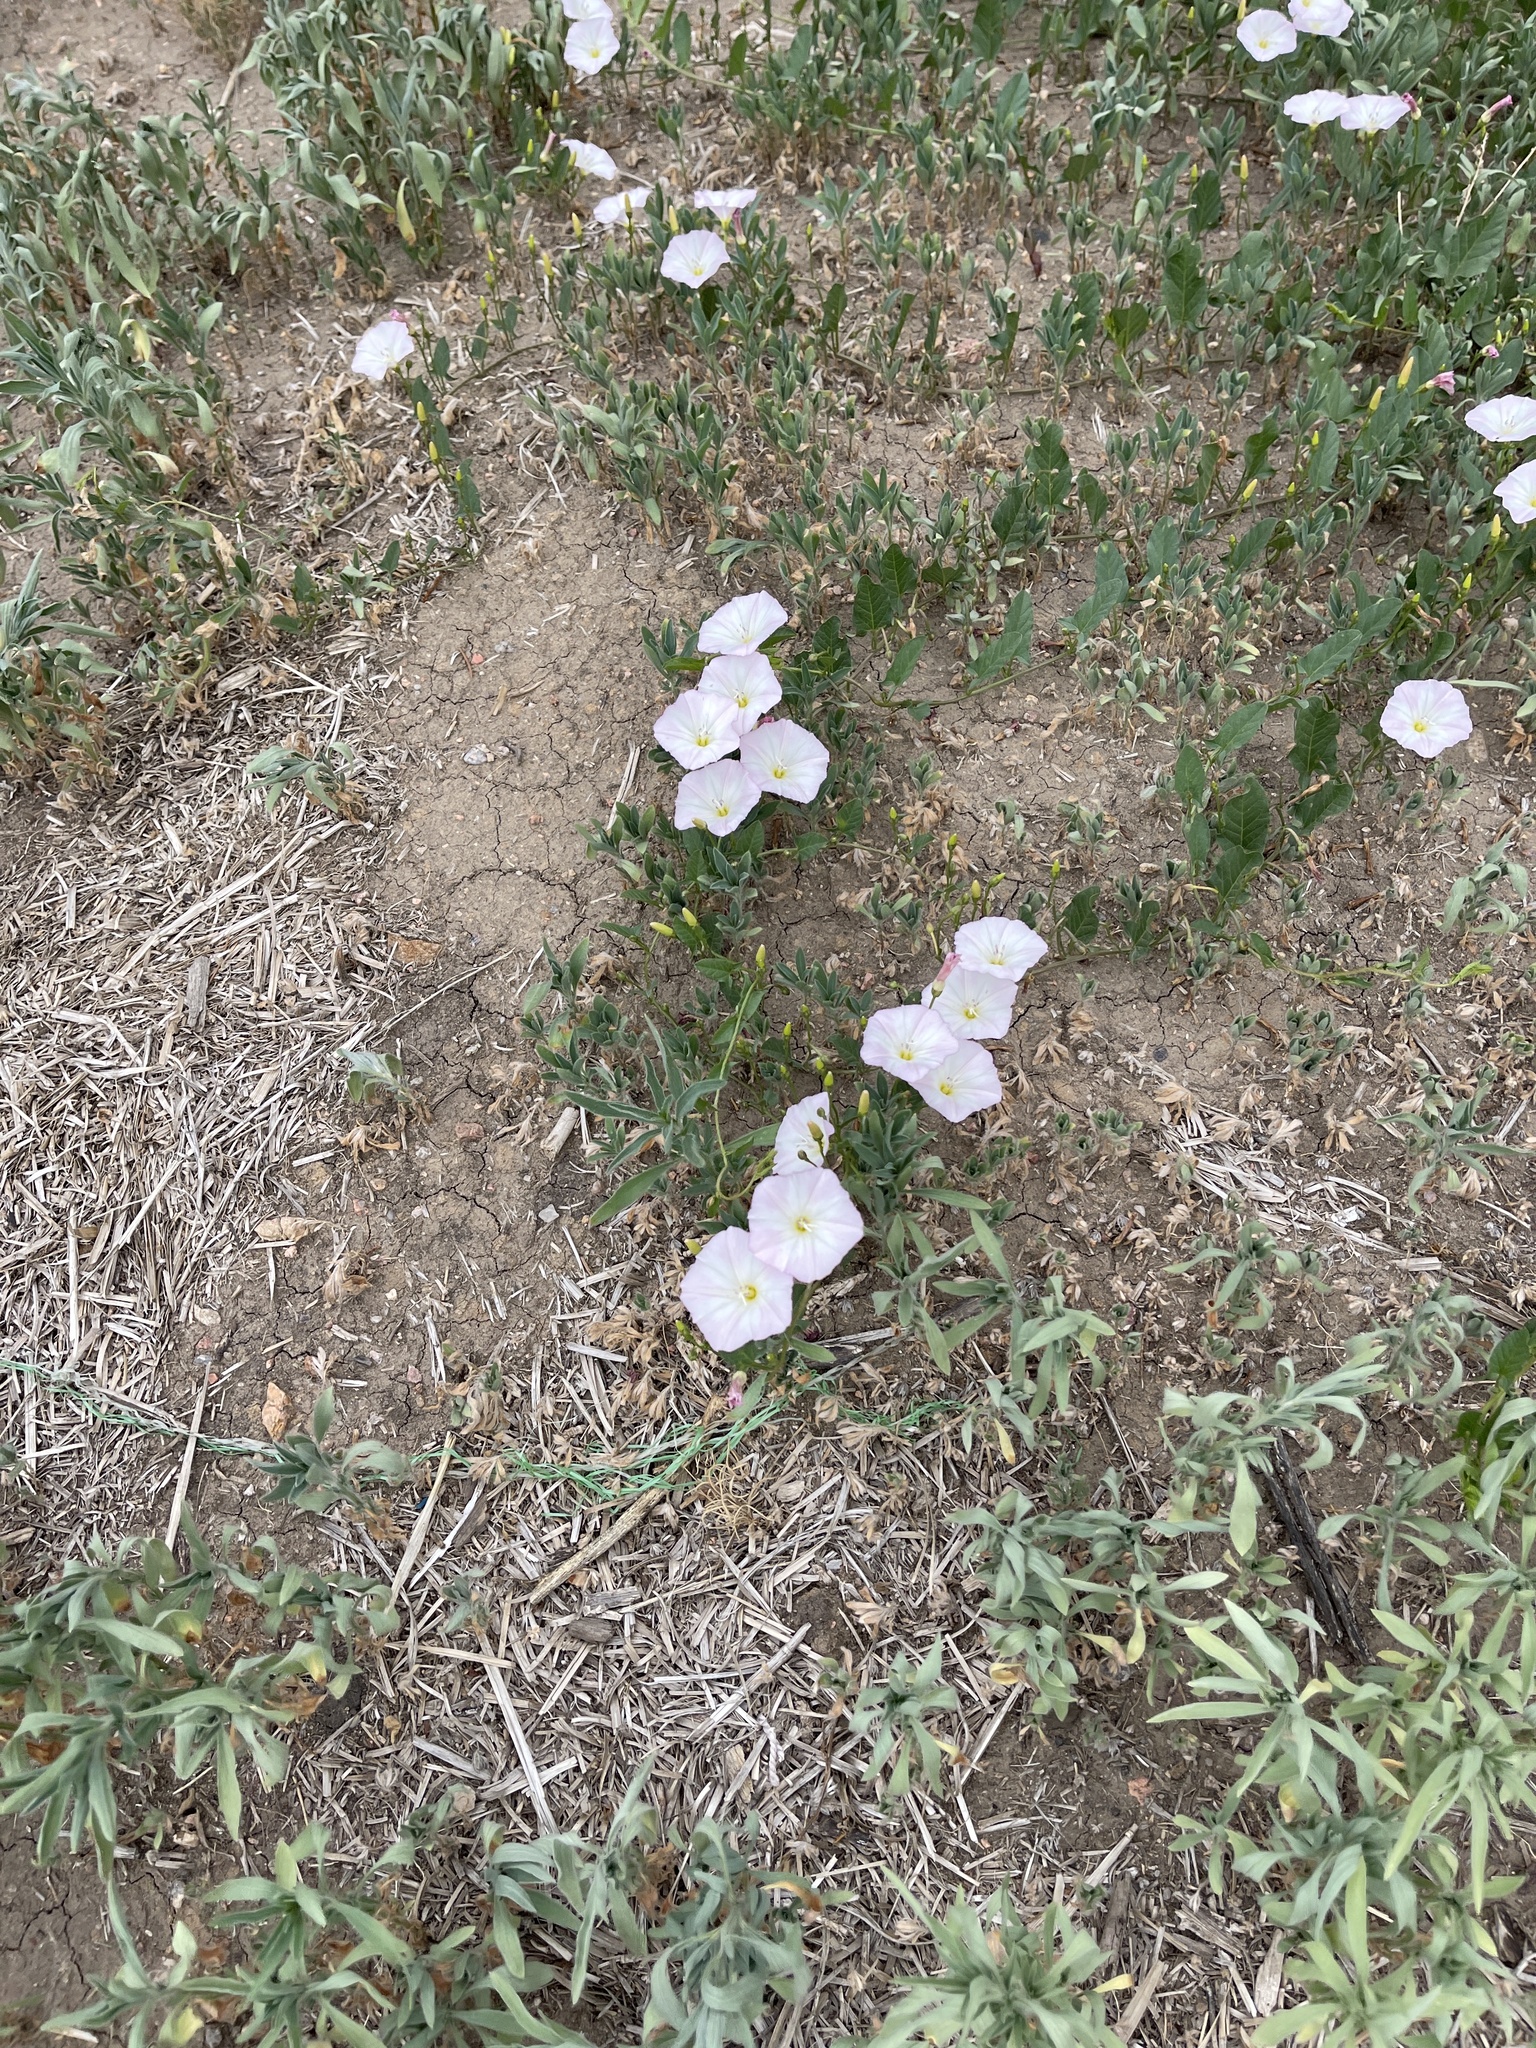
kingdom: Plantae
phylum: Tracheophyta
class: Magnoliopsida
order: Solanales
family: Convolvulaceae
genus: Convolvulus
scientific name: Convolvulus arvensis
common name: Field bindweed
